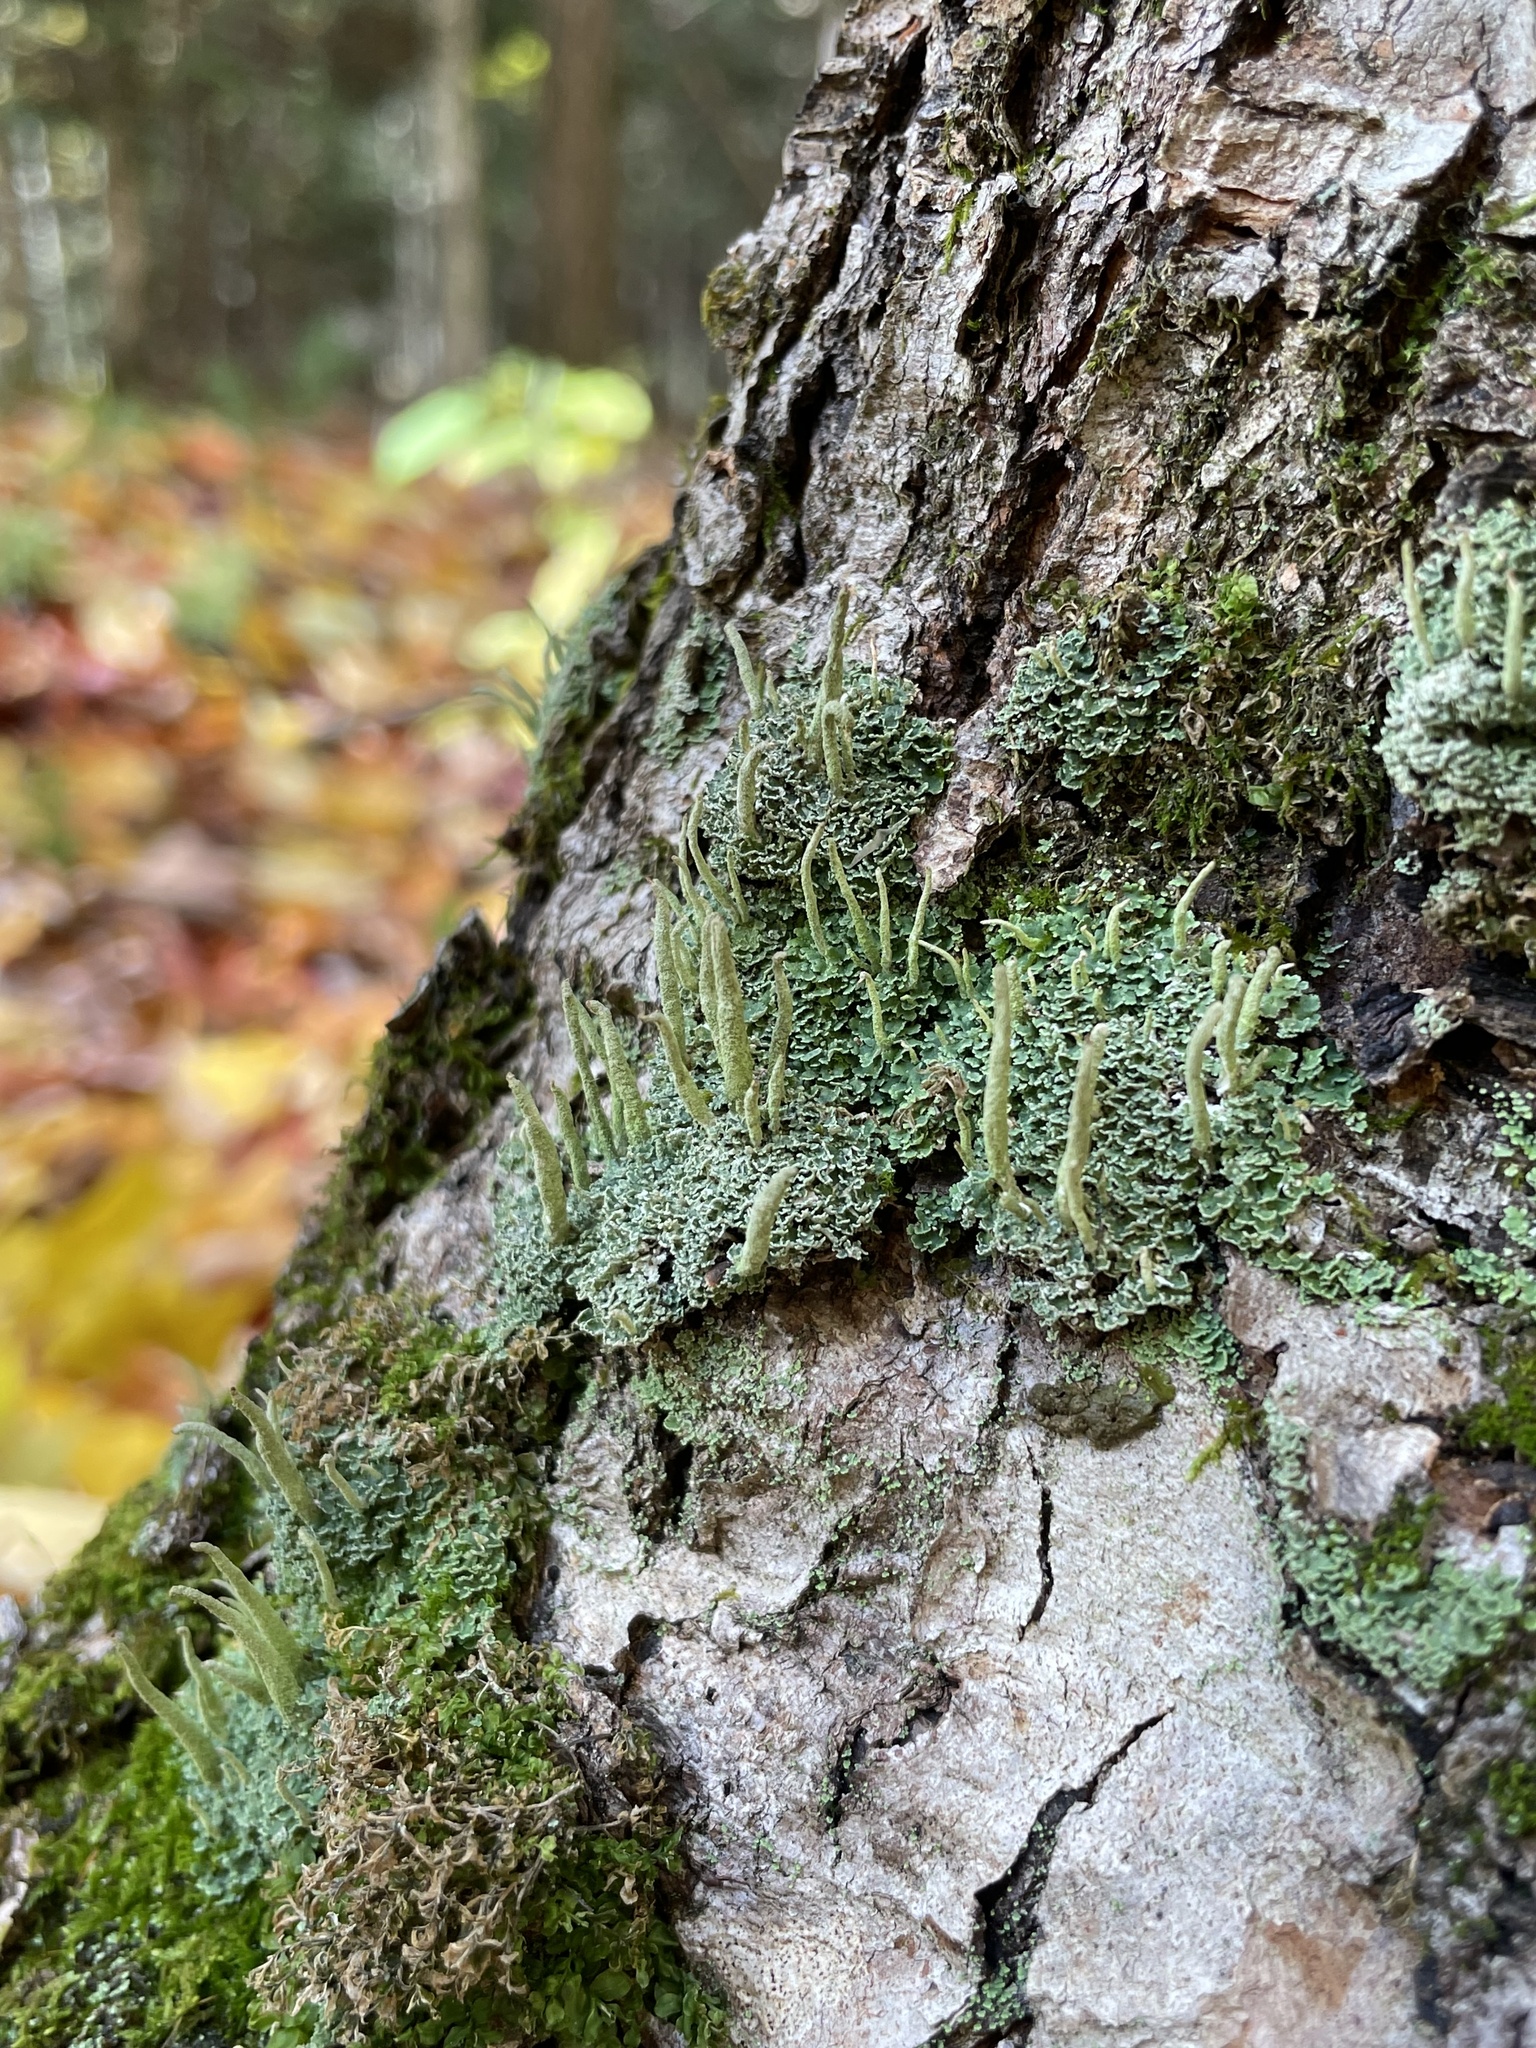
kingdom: Fungi
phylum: Ascomycota
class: Lecanoromycetes
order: Lecanorales
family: Cladoniaceae
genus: Cladonia
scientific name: Cladonia coniocraea
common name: Common powderhorn
